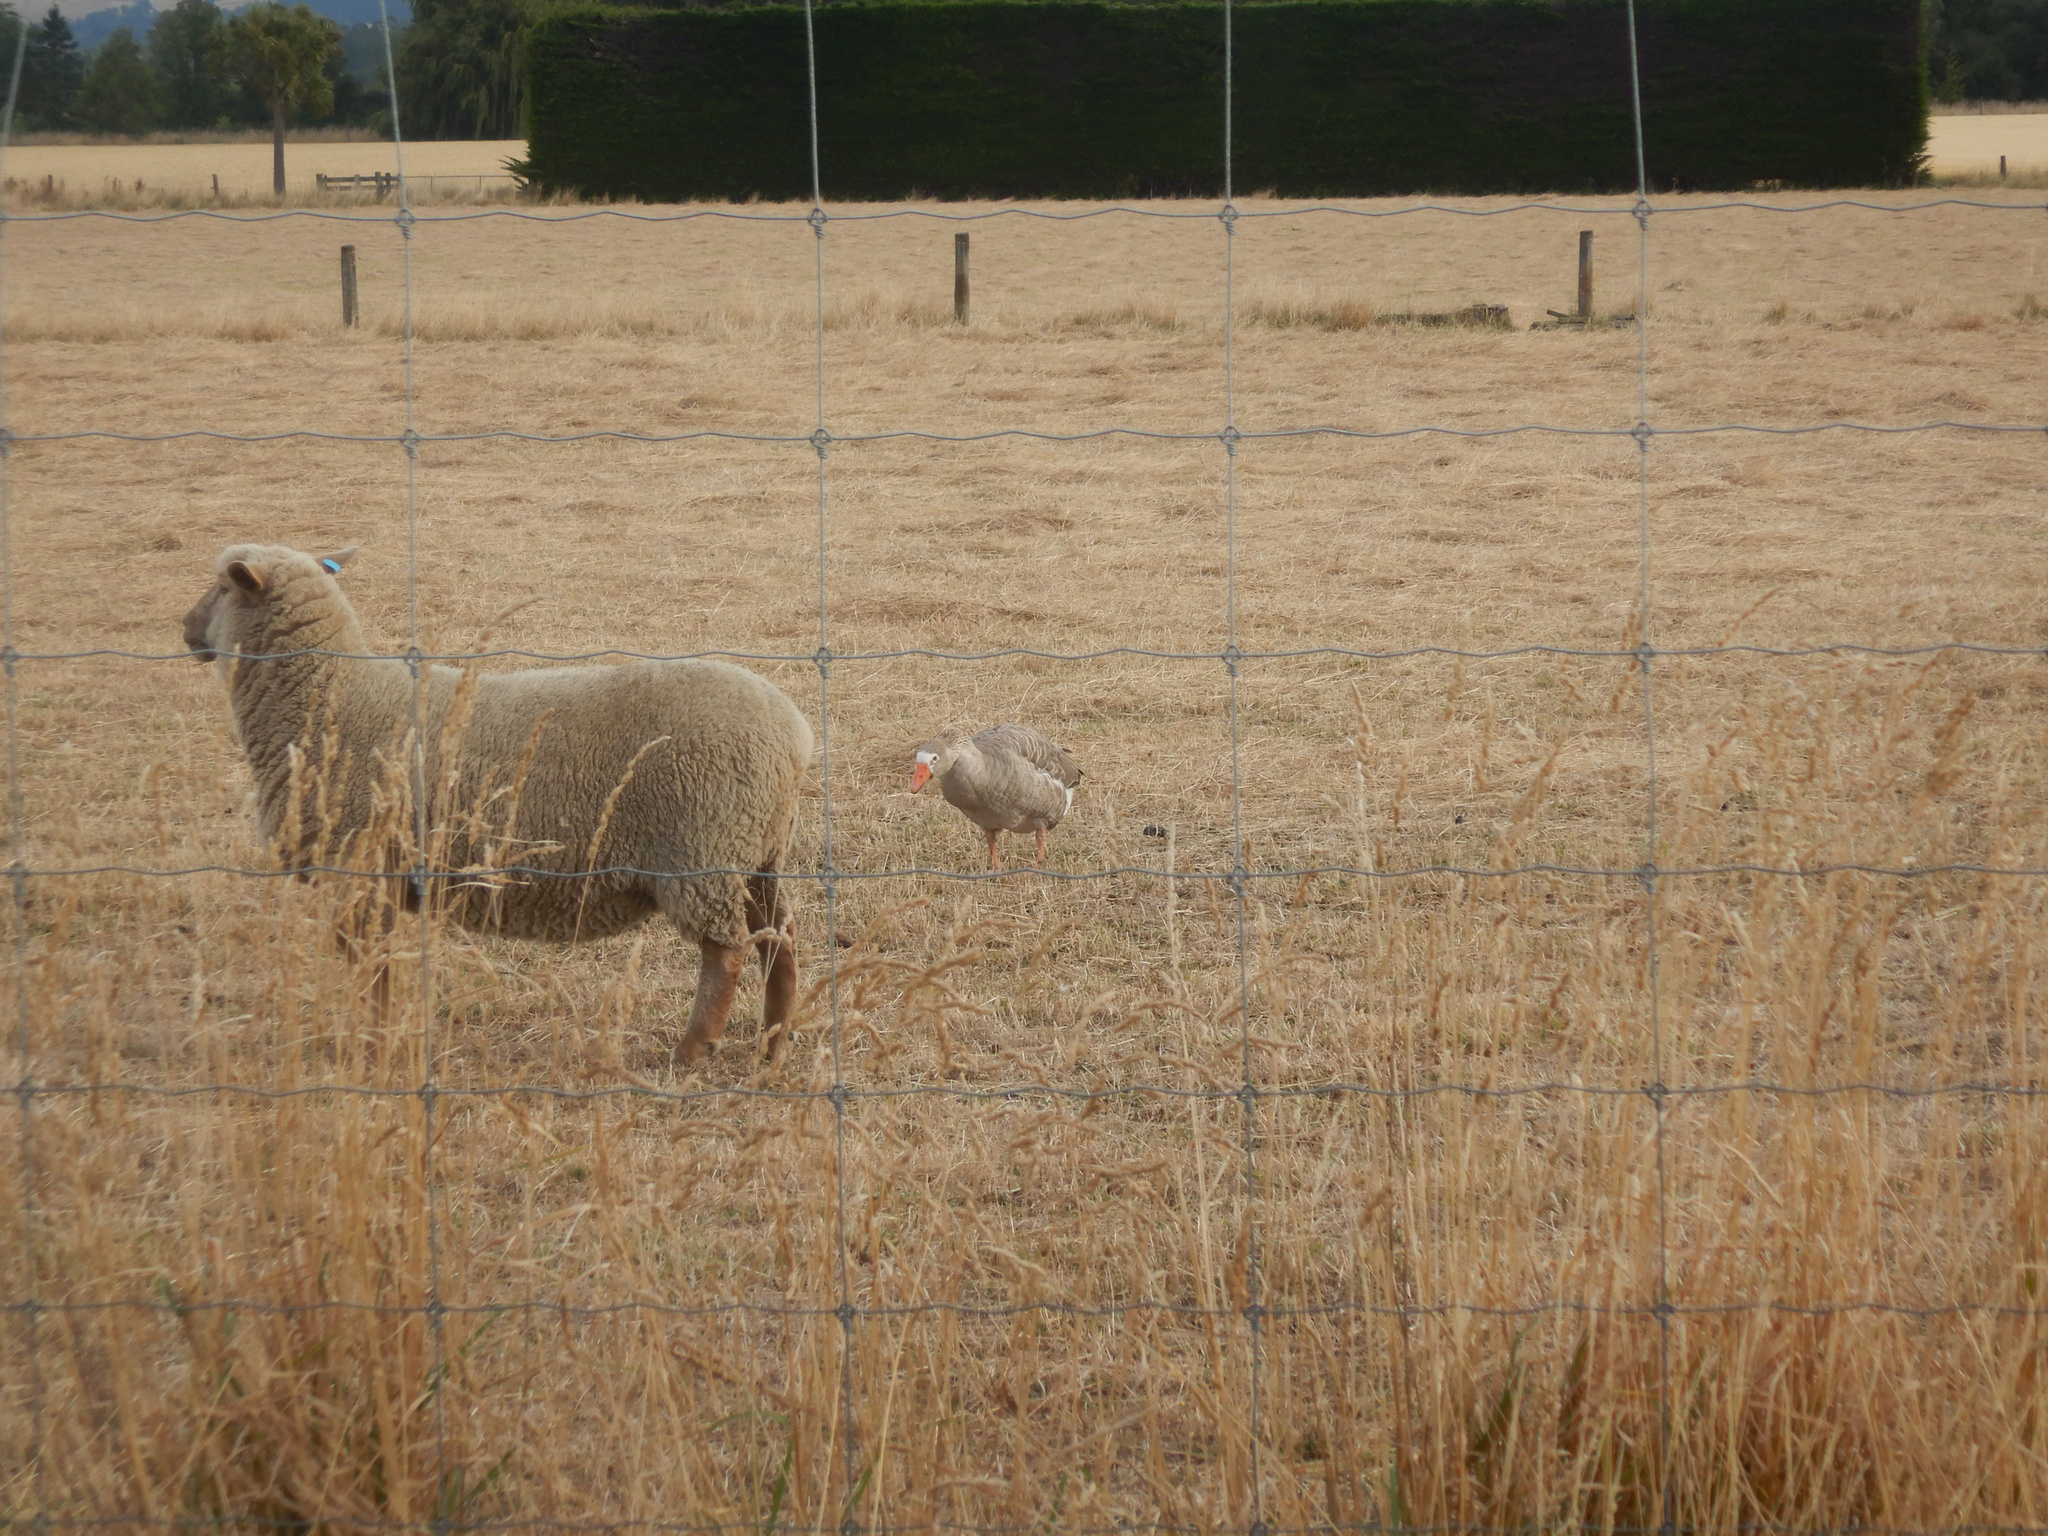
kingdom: Animalia
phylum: Chordata
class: Aves
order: Anseriformes
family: Anatidae
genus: Anser
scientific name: Anser anser
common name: Greylag goose
